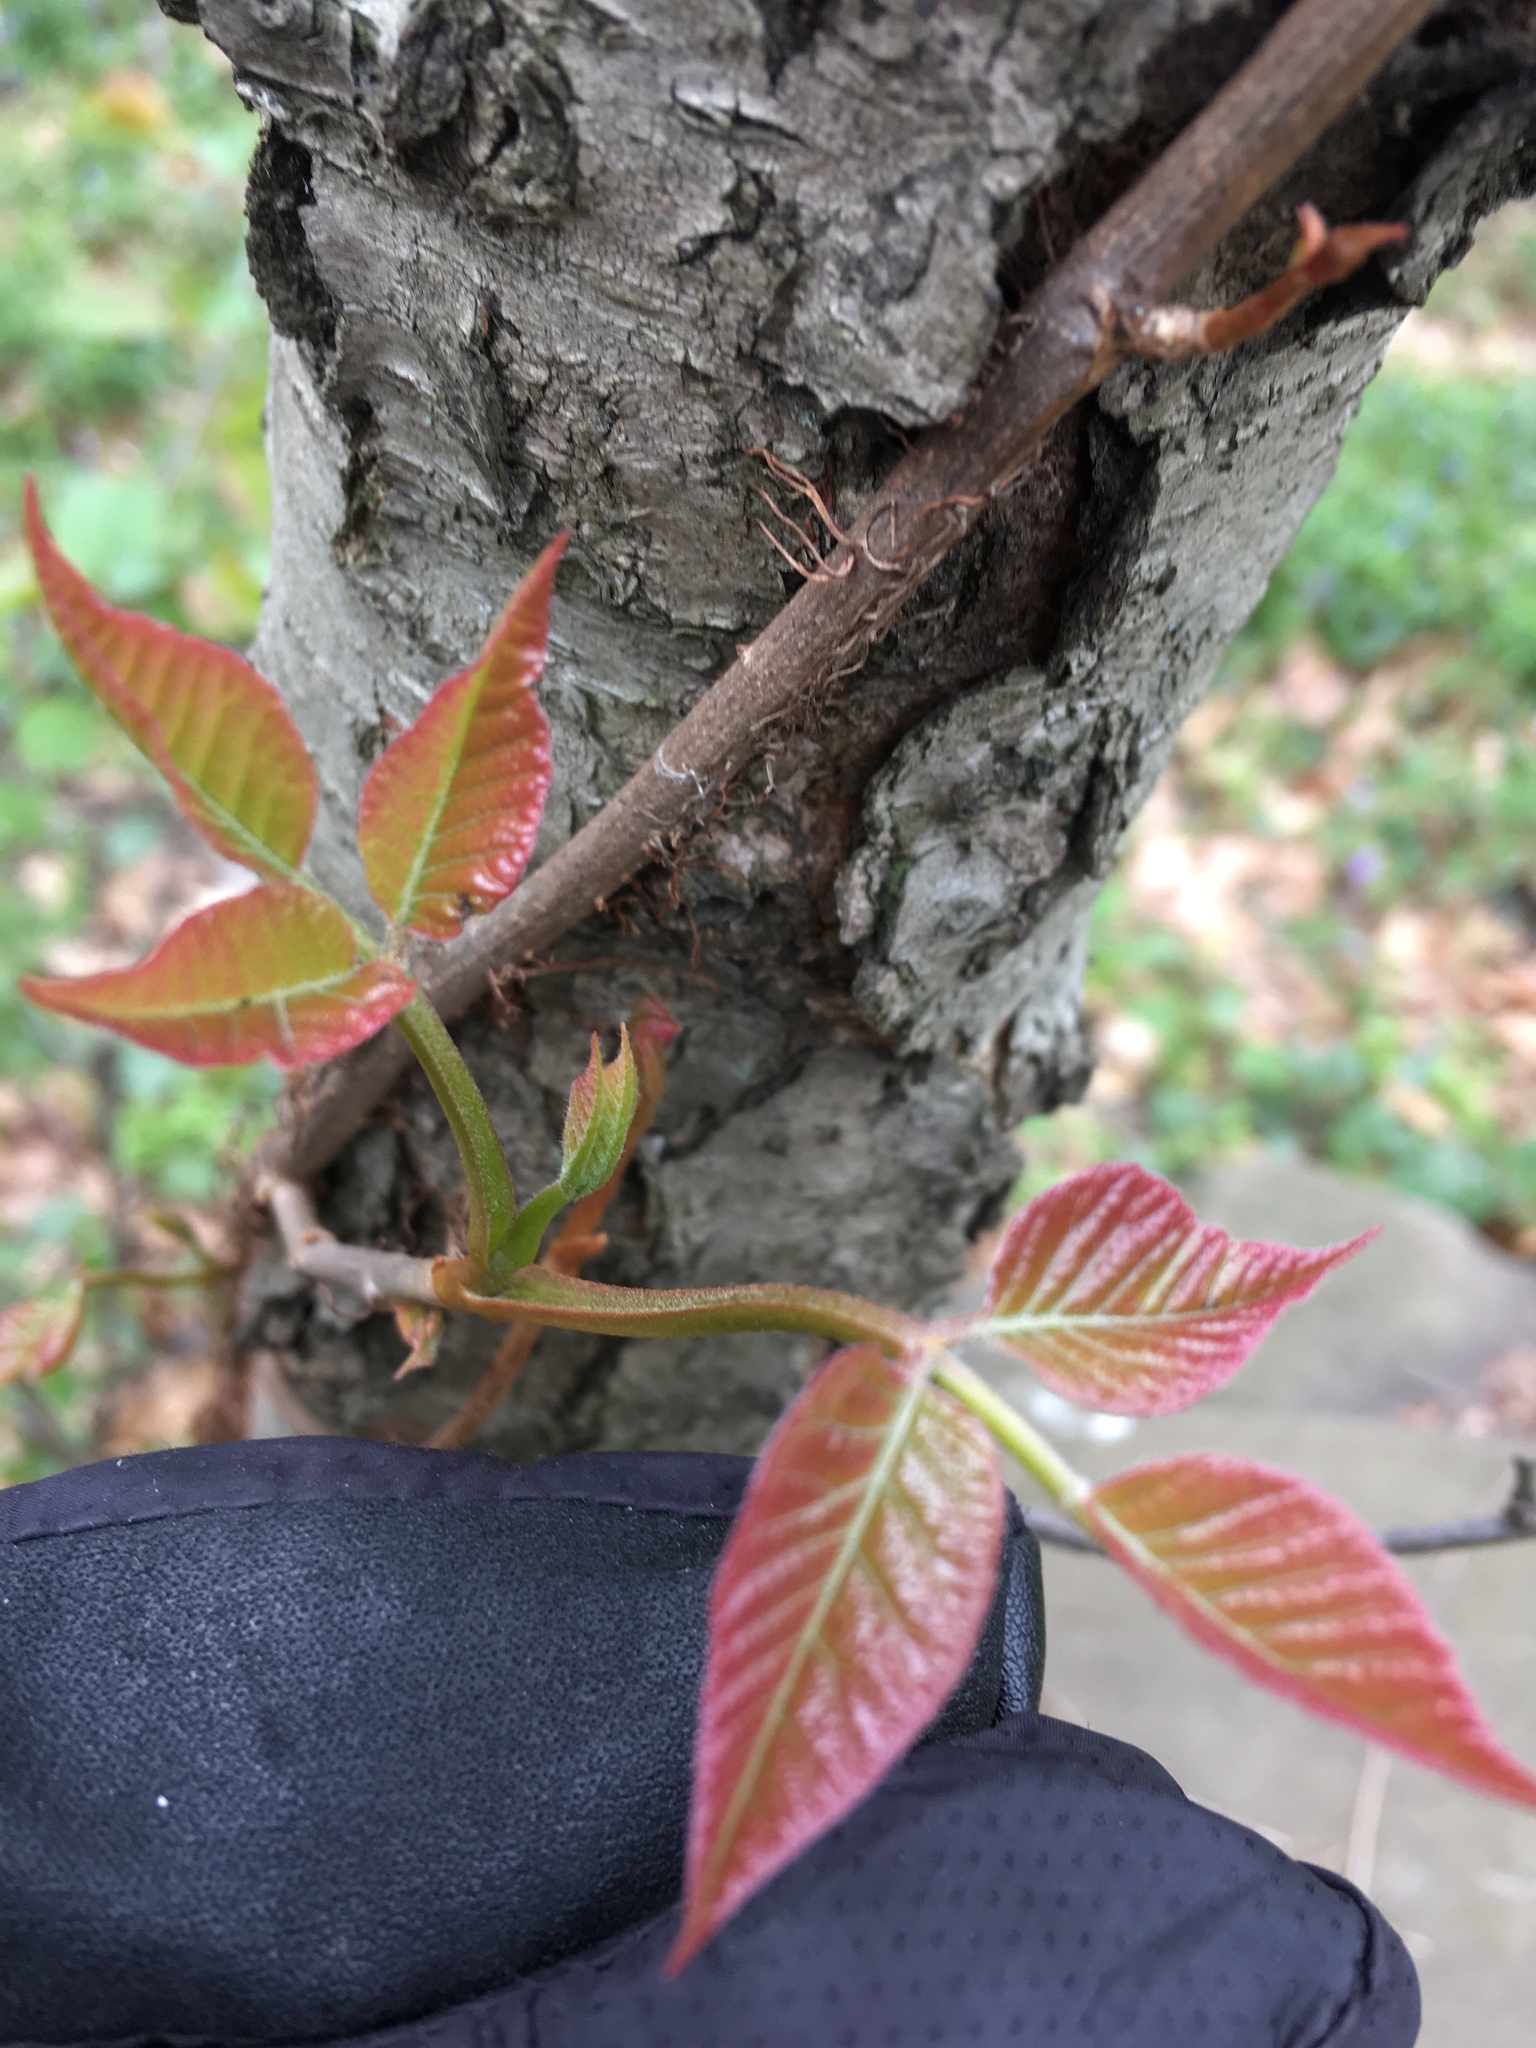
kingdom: Plantae
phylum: Tracheophyta
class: Magnoliopsida
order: Sapindales
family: Anacardiaceae
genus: Toxicodendron
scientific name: Toxicodendron radicans
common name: Poison ivy
